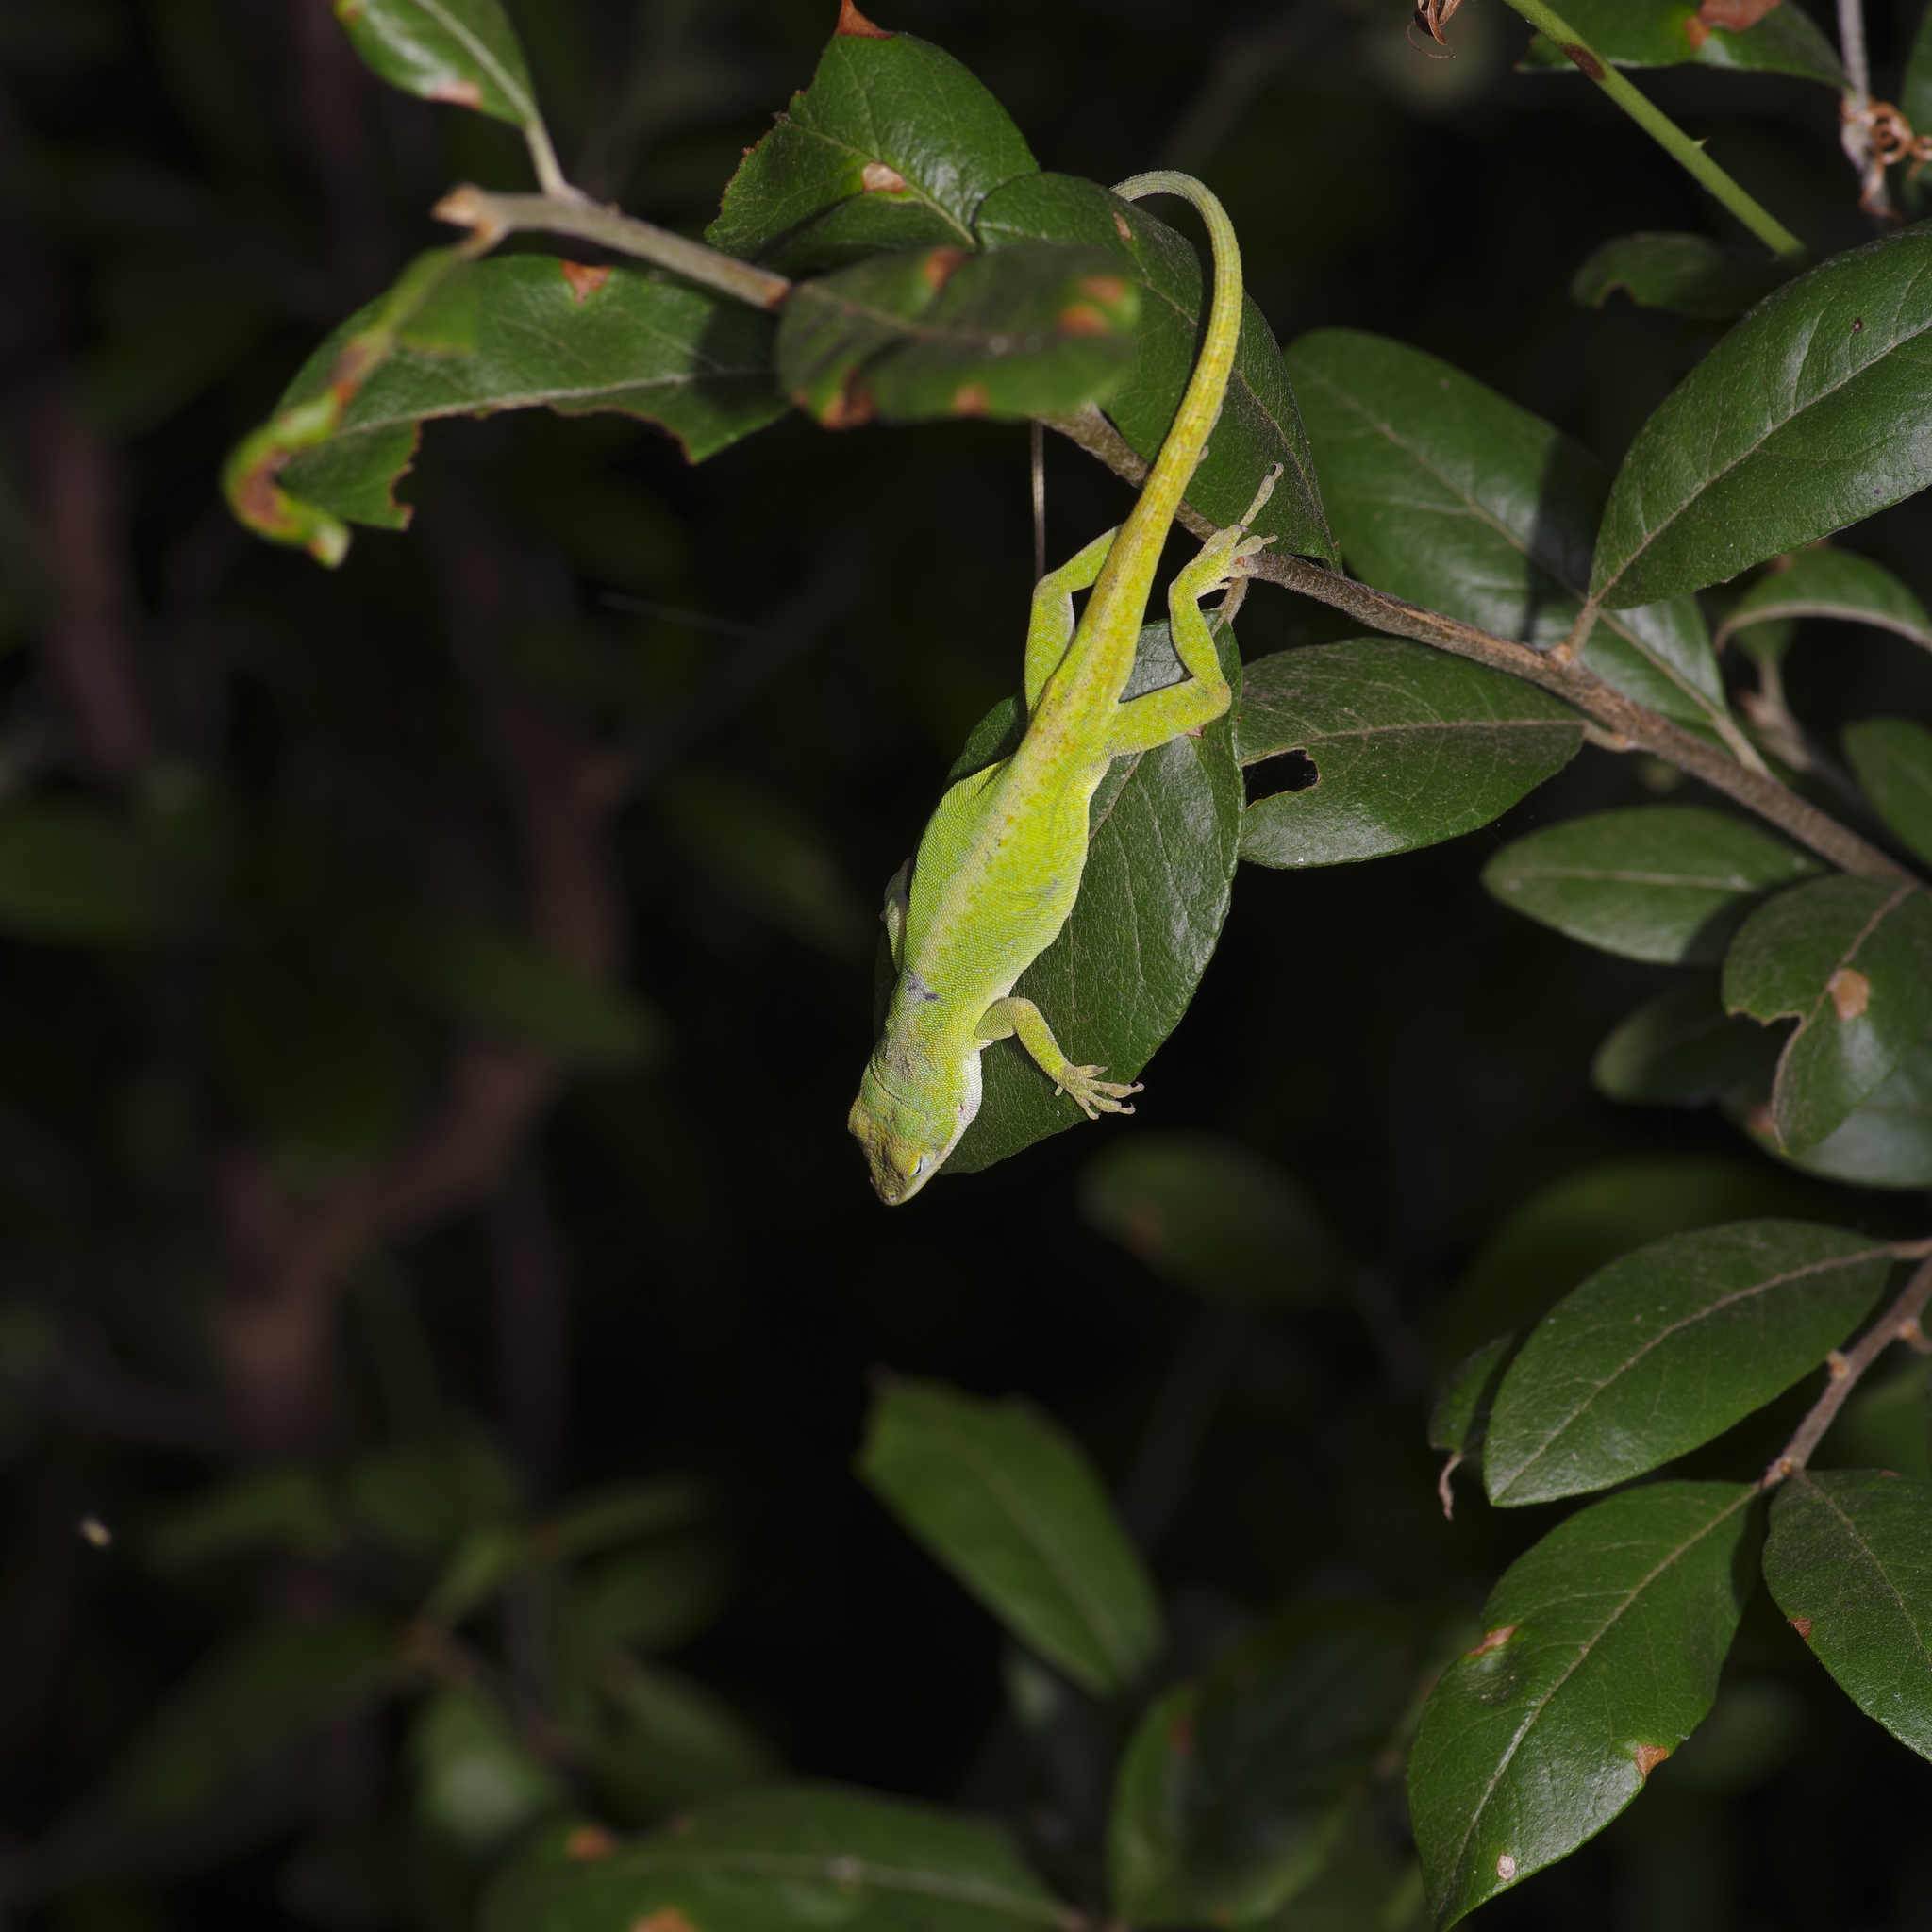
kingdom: Animalia
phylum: Chordata
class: Squamata
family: Dactyloidae
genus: Anolis
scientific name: Anolis carolinensis
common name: Green anole
